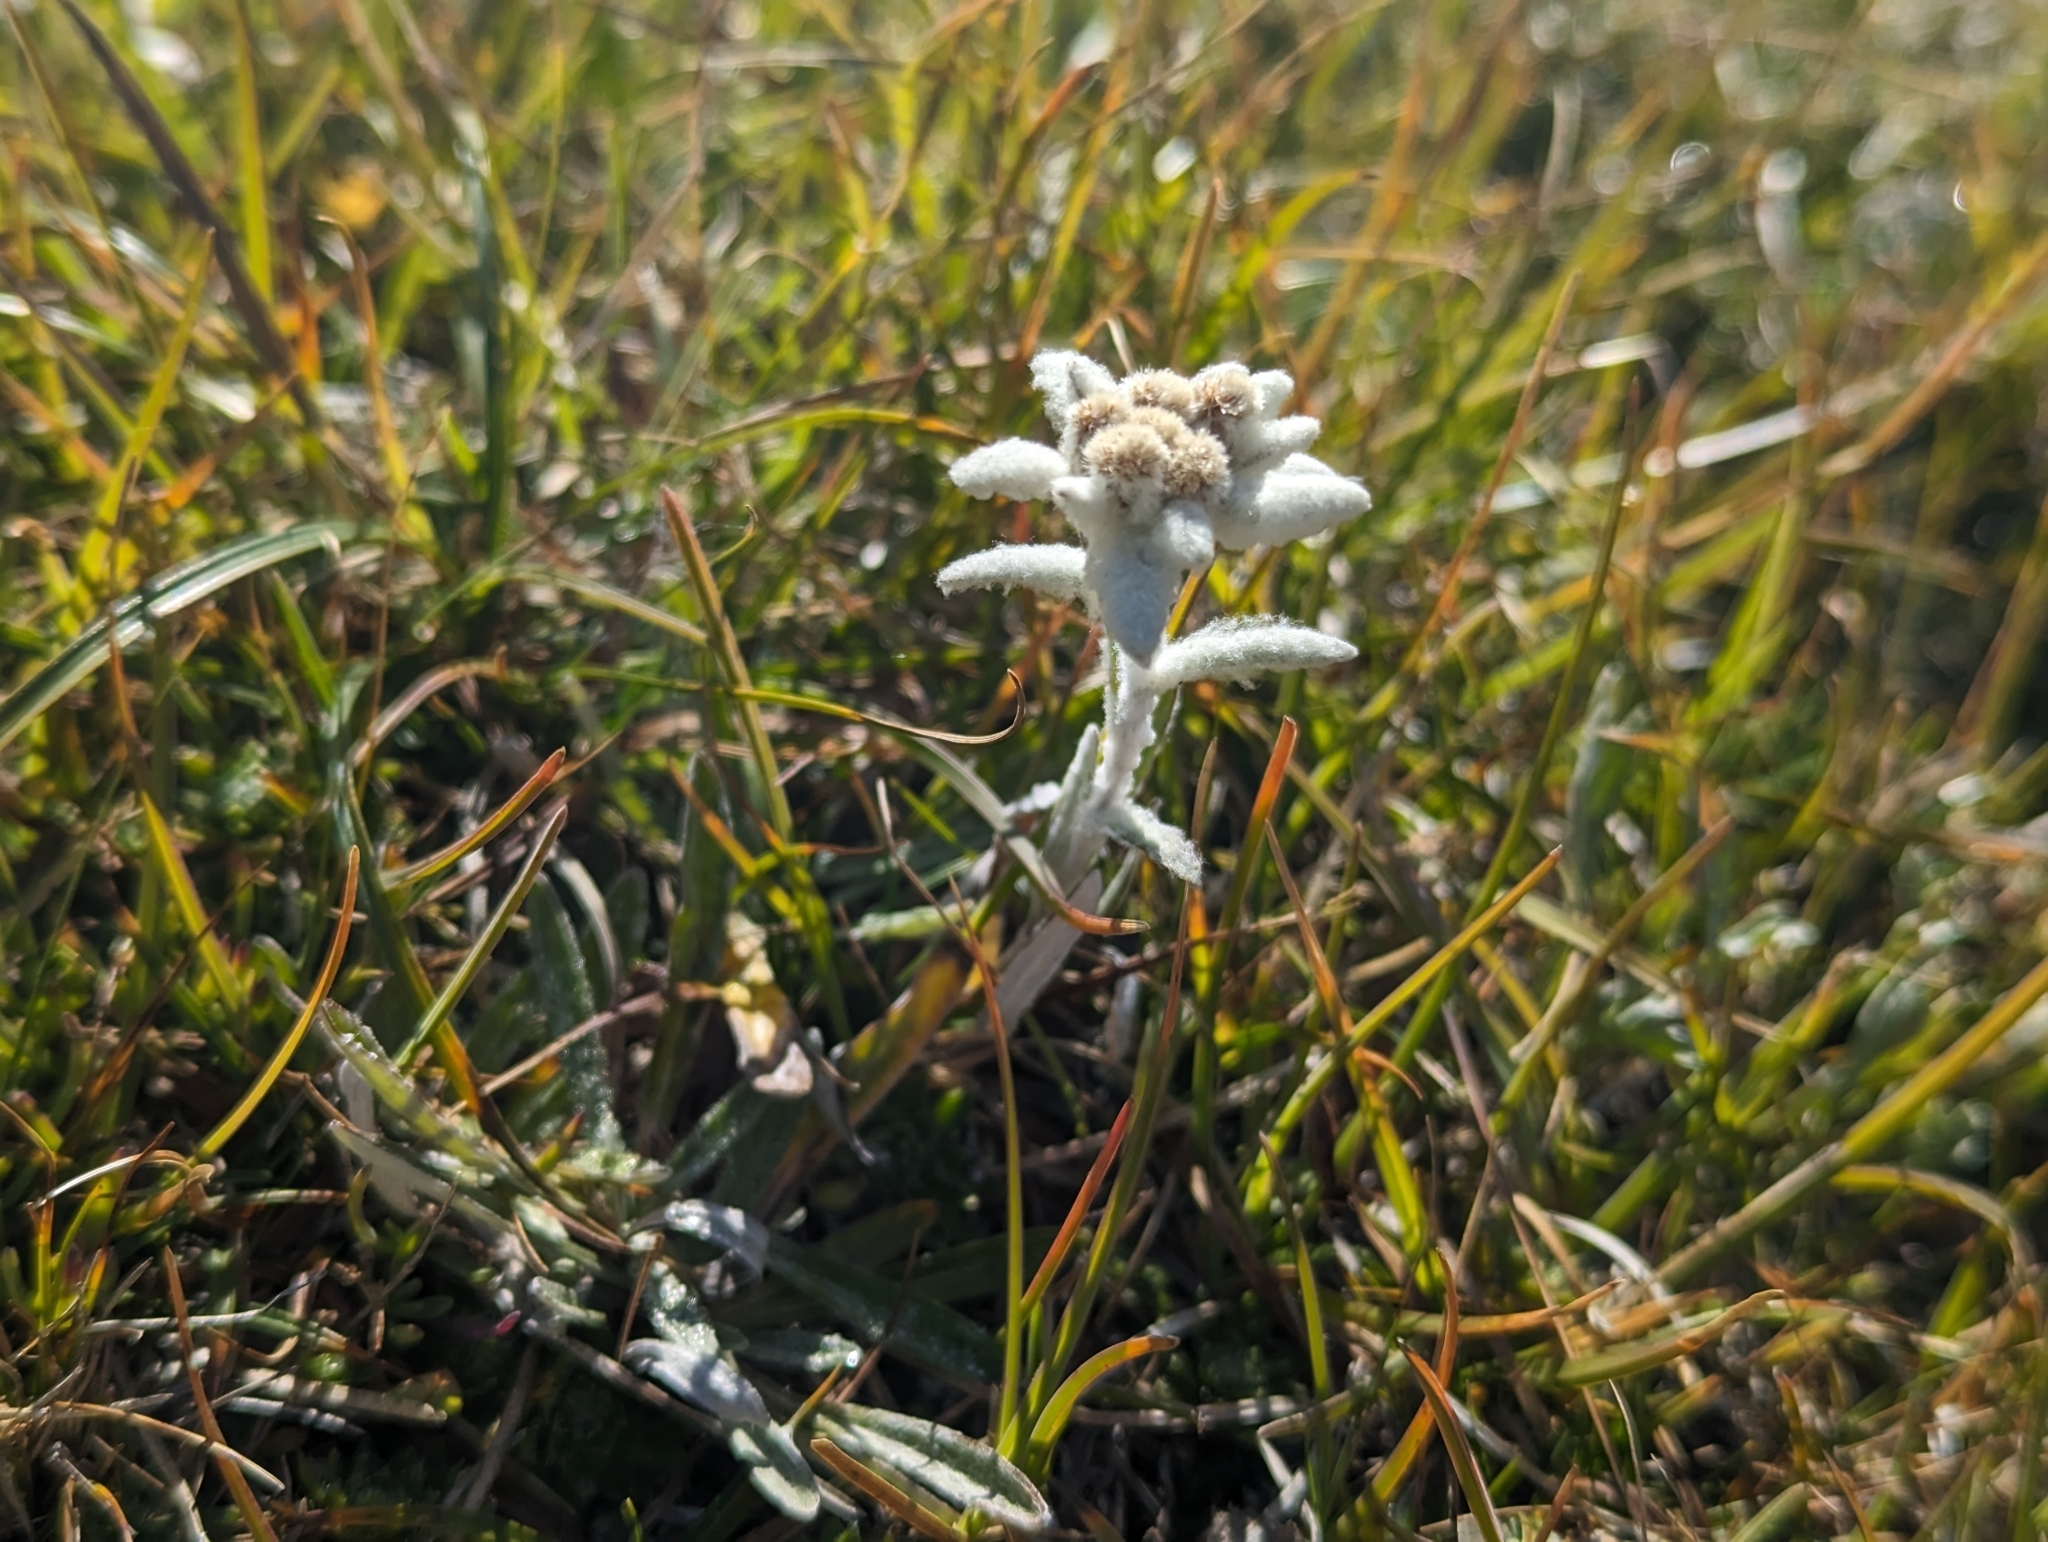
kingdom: Plantae
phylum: Tracheophyta
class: Magnoliopsida
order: Asterales
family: Asteraceae
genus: Leontopodium
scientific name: Leontopodium nivale
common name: Edelweiss
